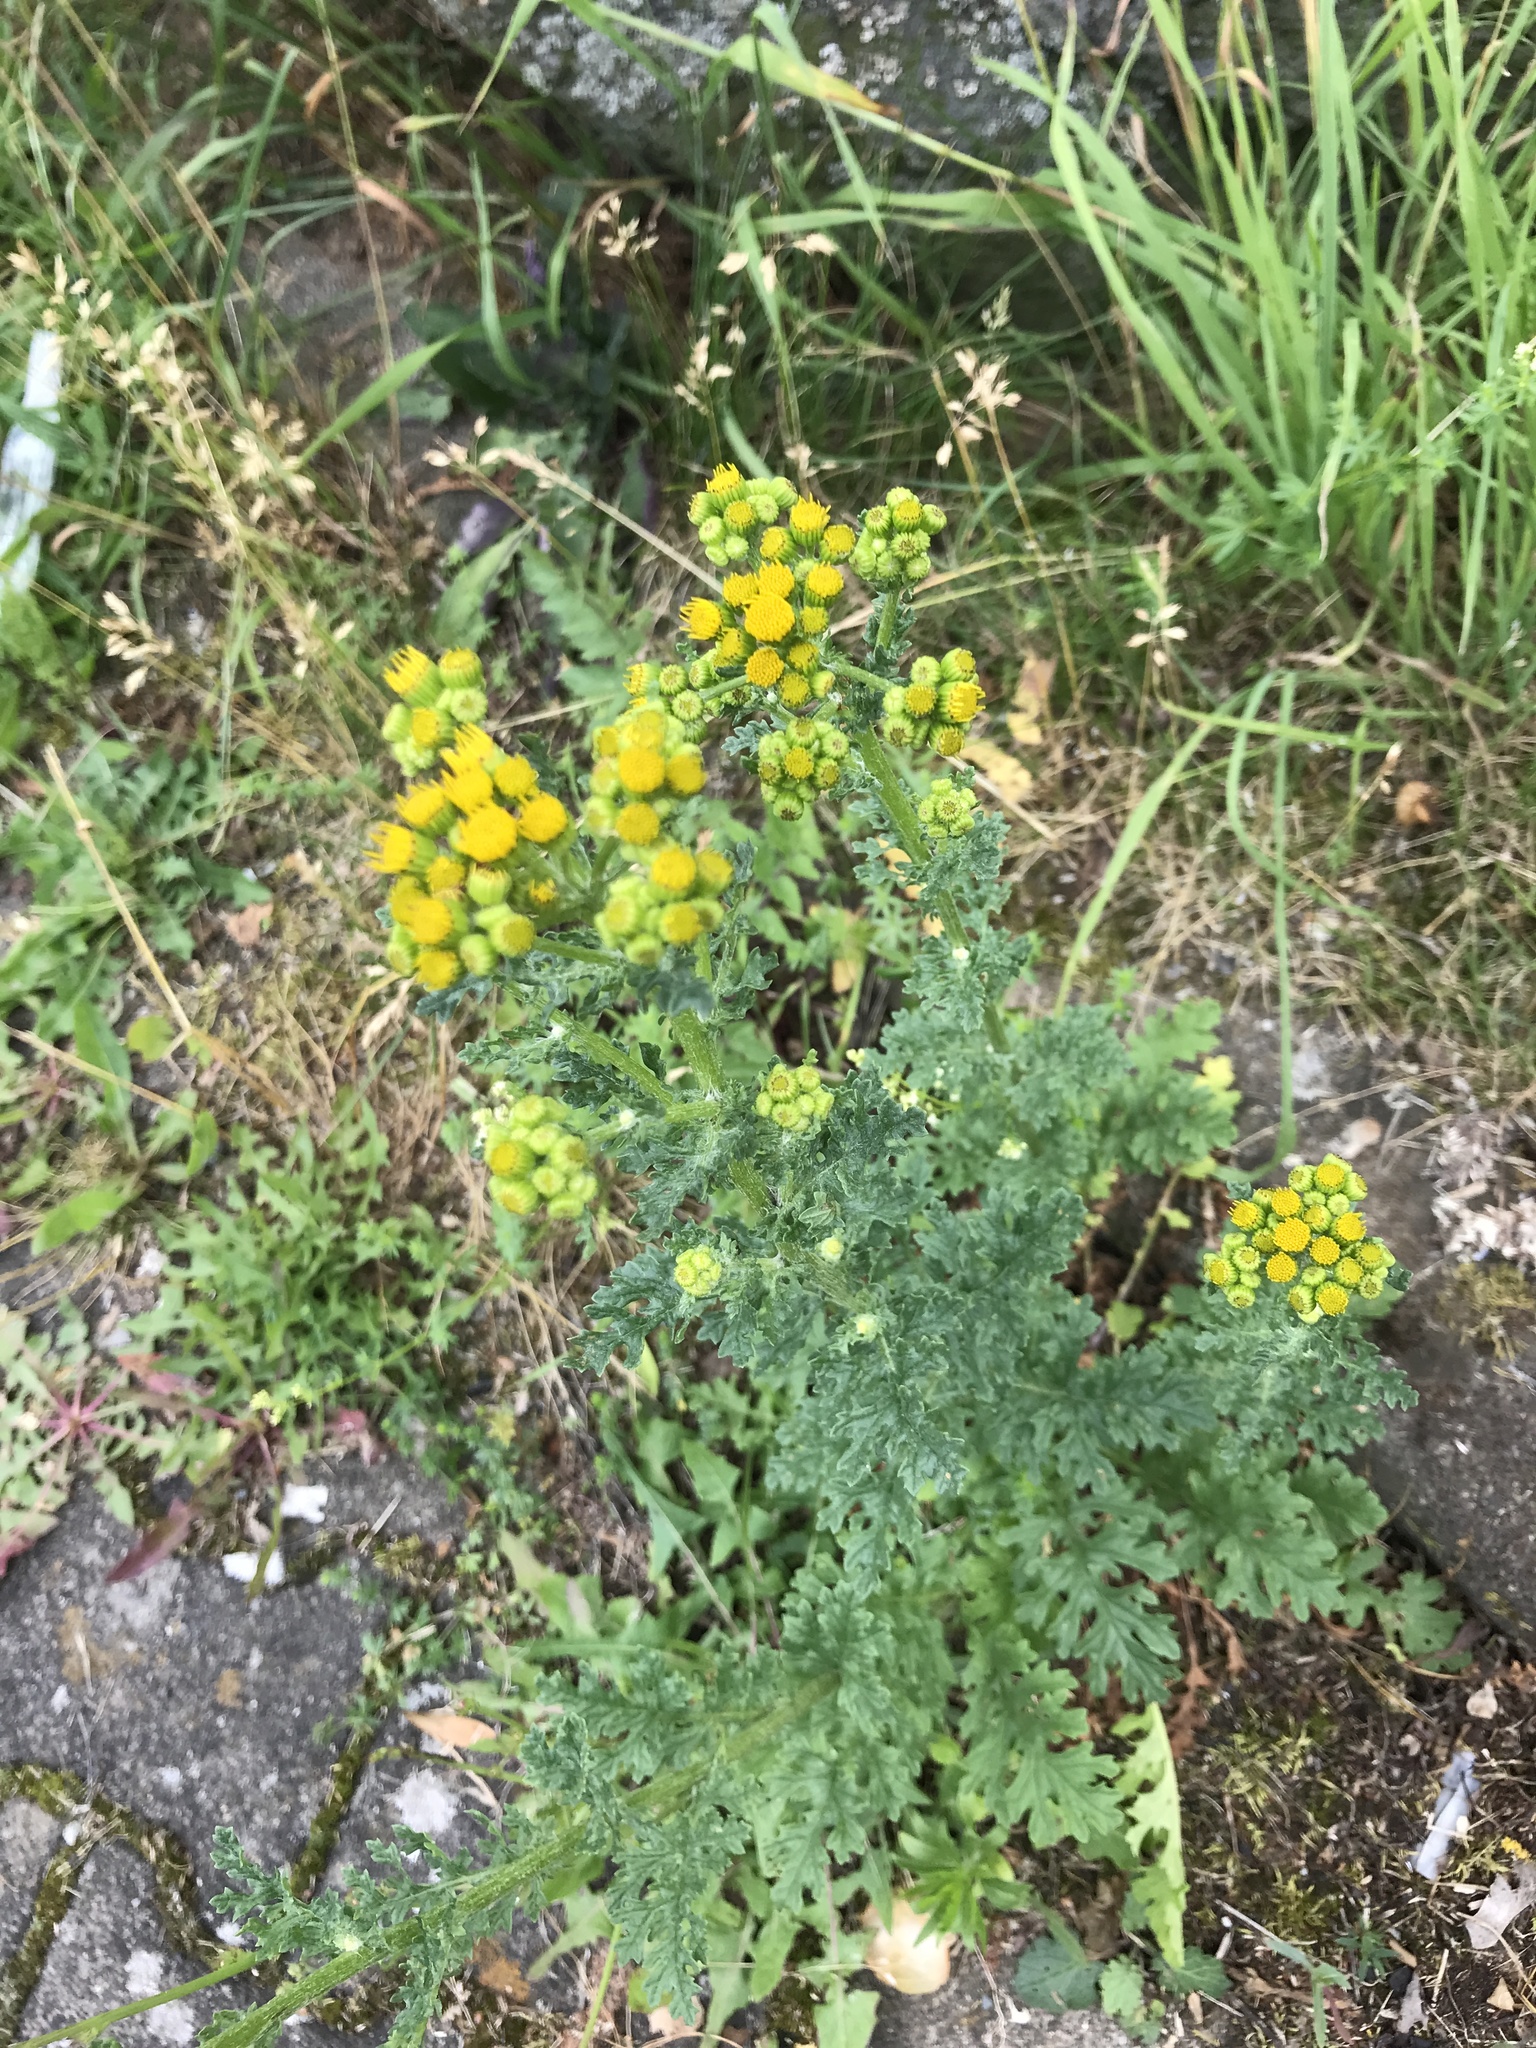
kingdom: Plantae
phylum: Tracheophyta
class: Magnoliopsida
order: Asterales
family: Asteraceae
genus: Jacobaea
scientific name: Jacobaea vulgaris
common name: Stinking willie
